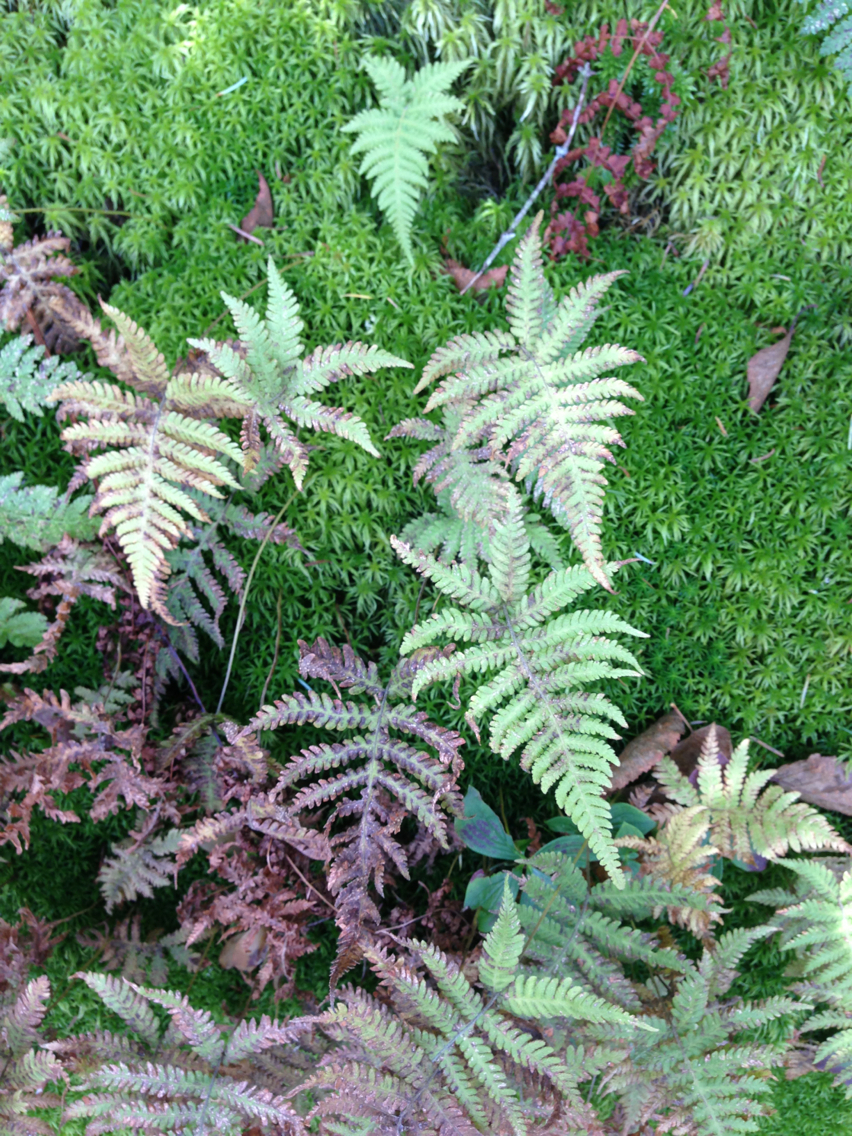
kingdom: Plantae
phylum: Tracheophyta
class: Polypodiopsida
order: Polypodiales
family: Thelypteridaceae
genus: Phegopteris
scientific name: Phegopteris connectilis
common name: Beech fern
